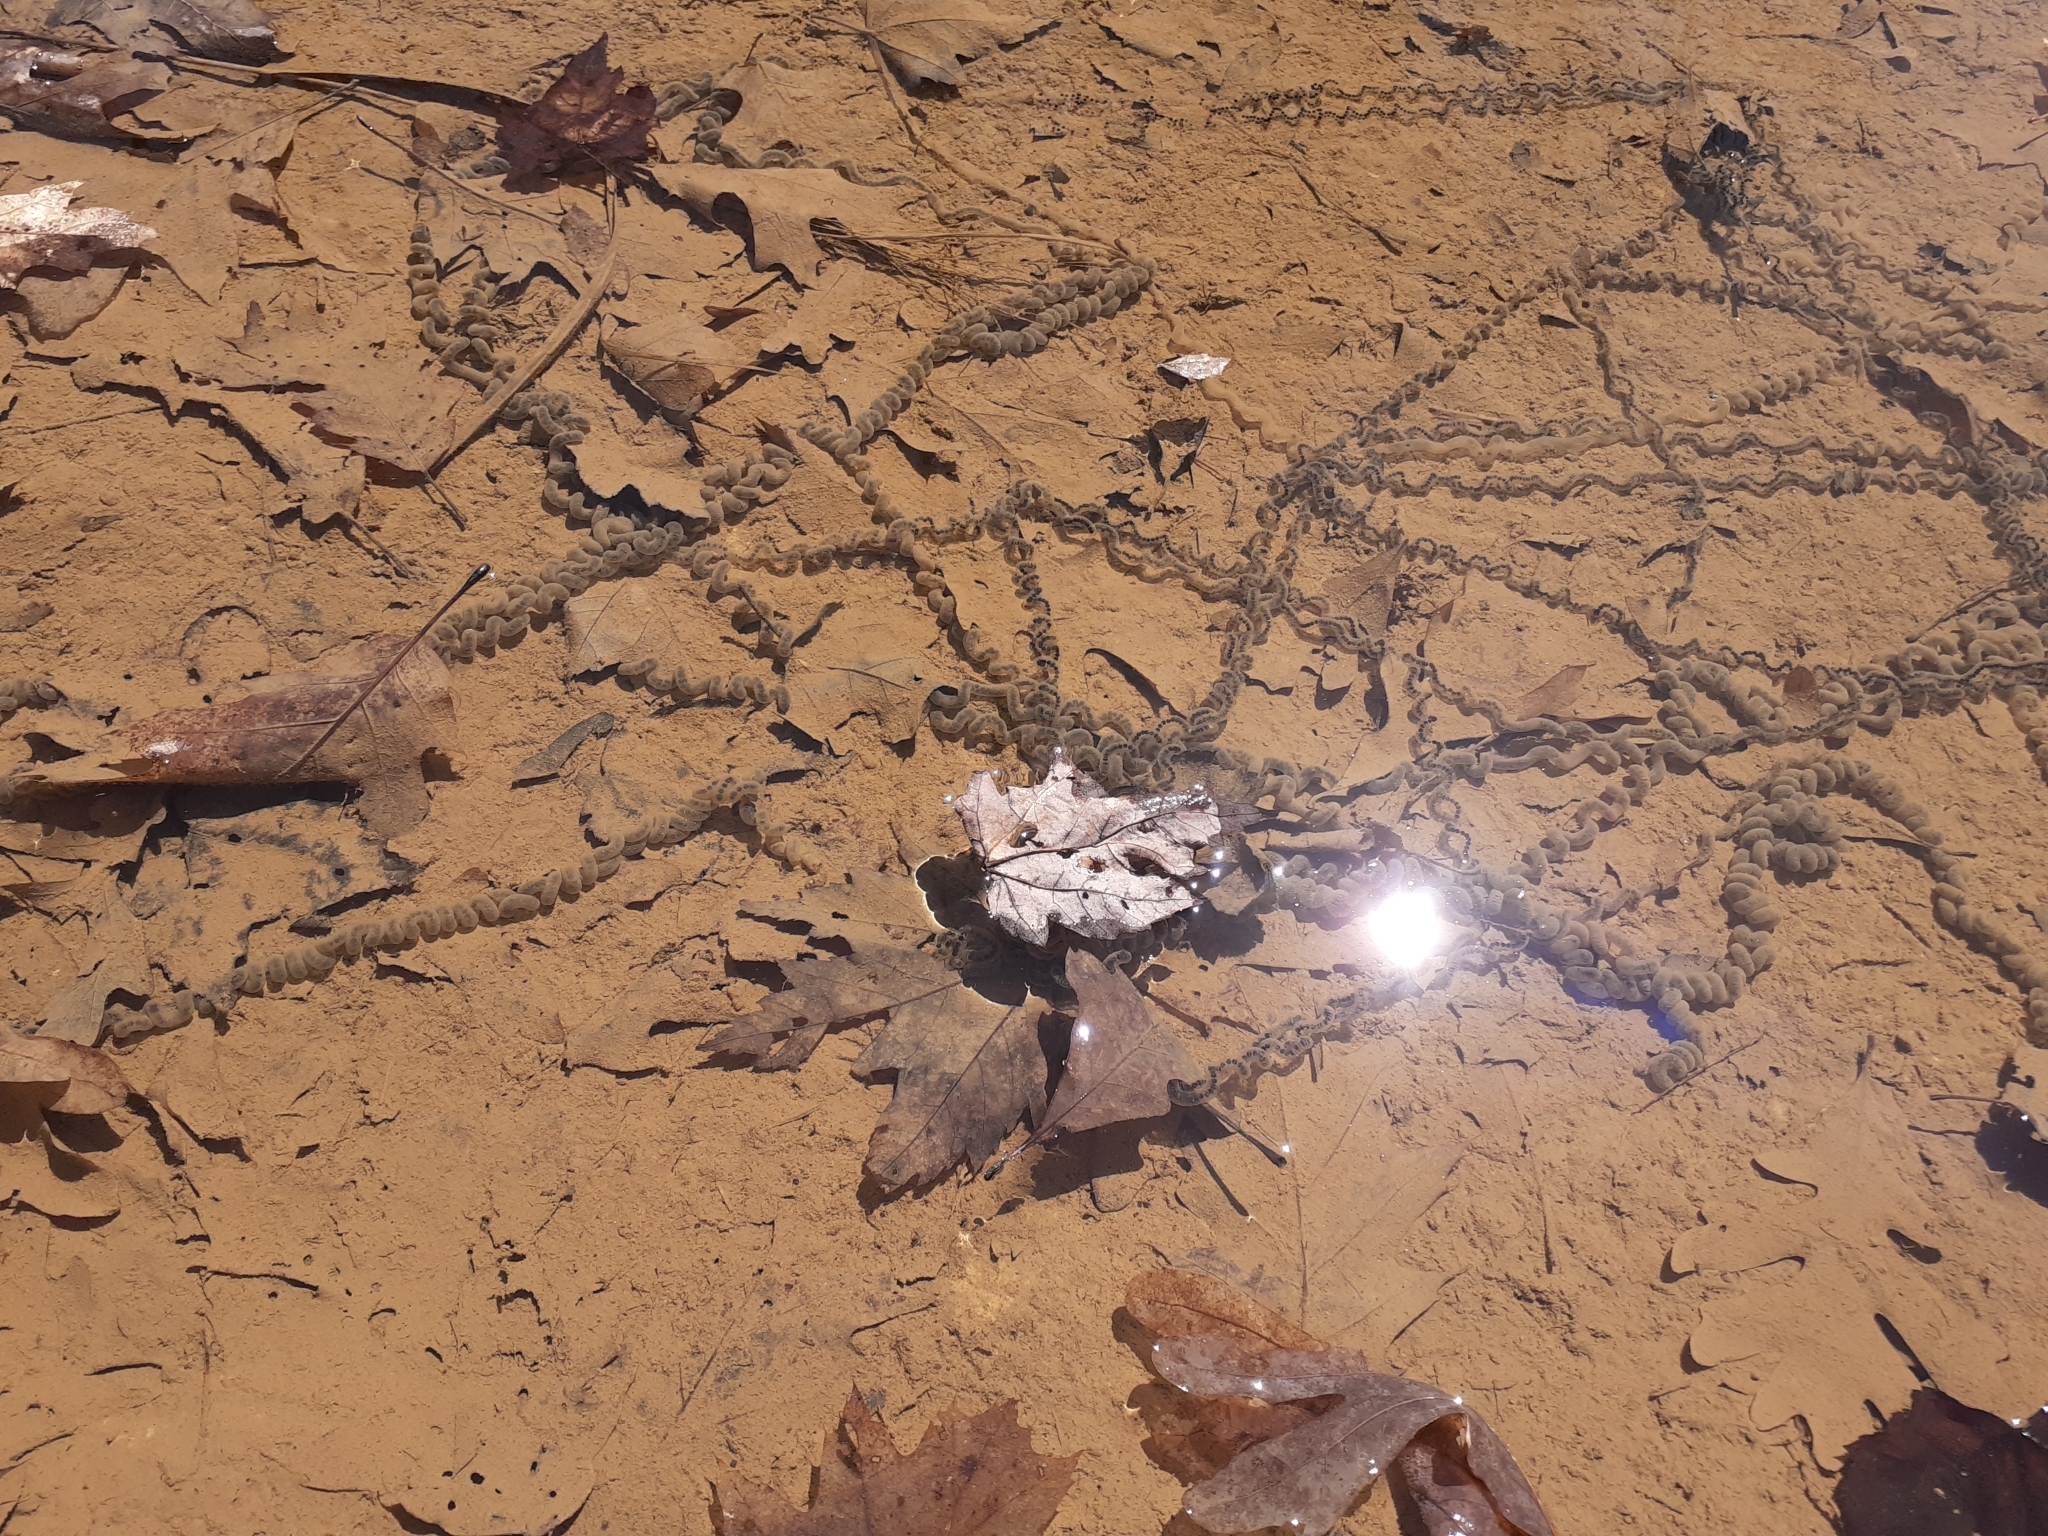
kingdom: Animalia
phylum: Chordata
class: Amphibia
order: Anura
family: Bufonidae
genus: Anaxyrus
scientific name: Anaxyrus americanus
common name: American toad
